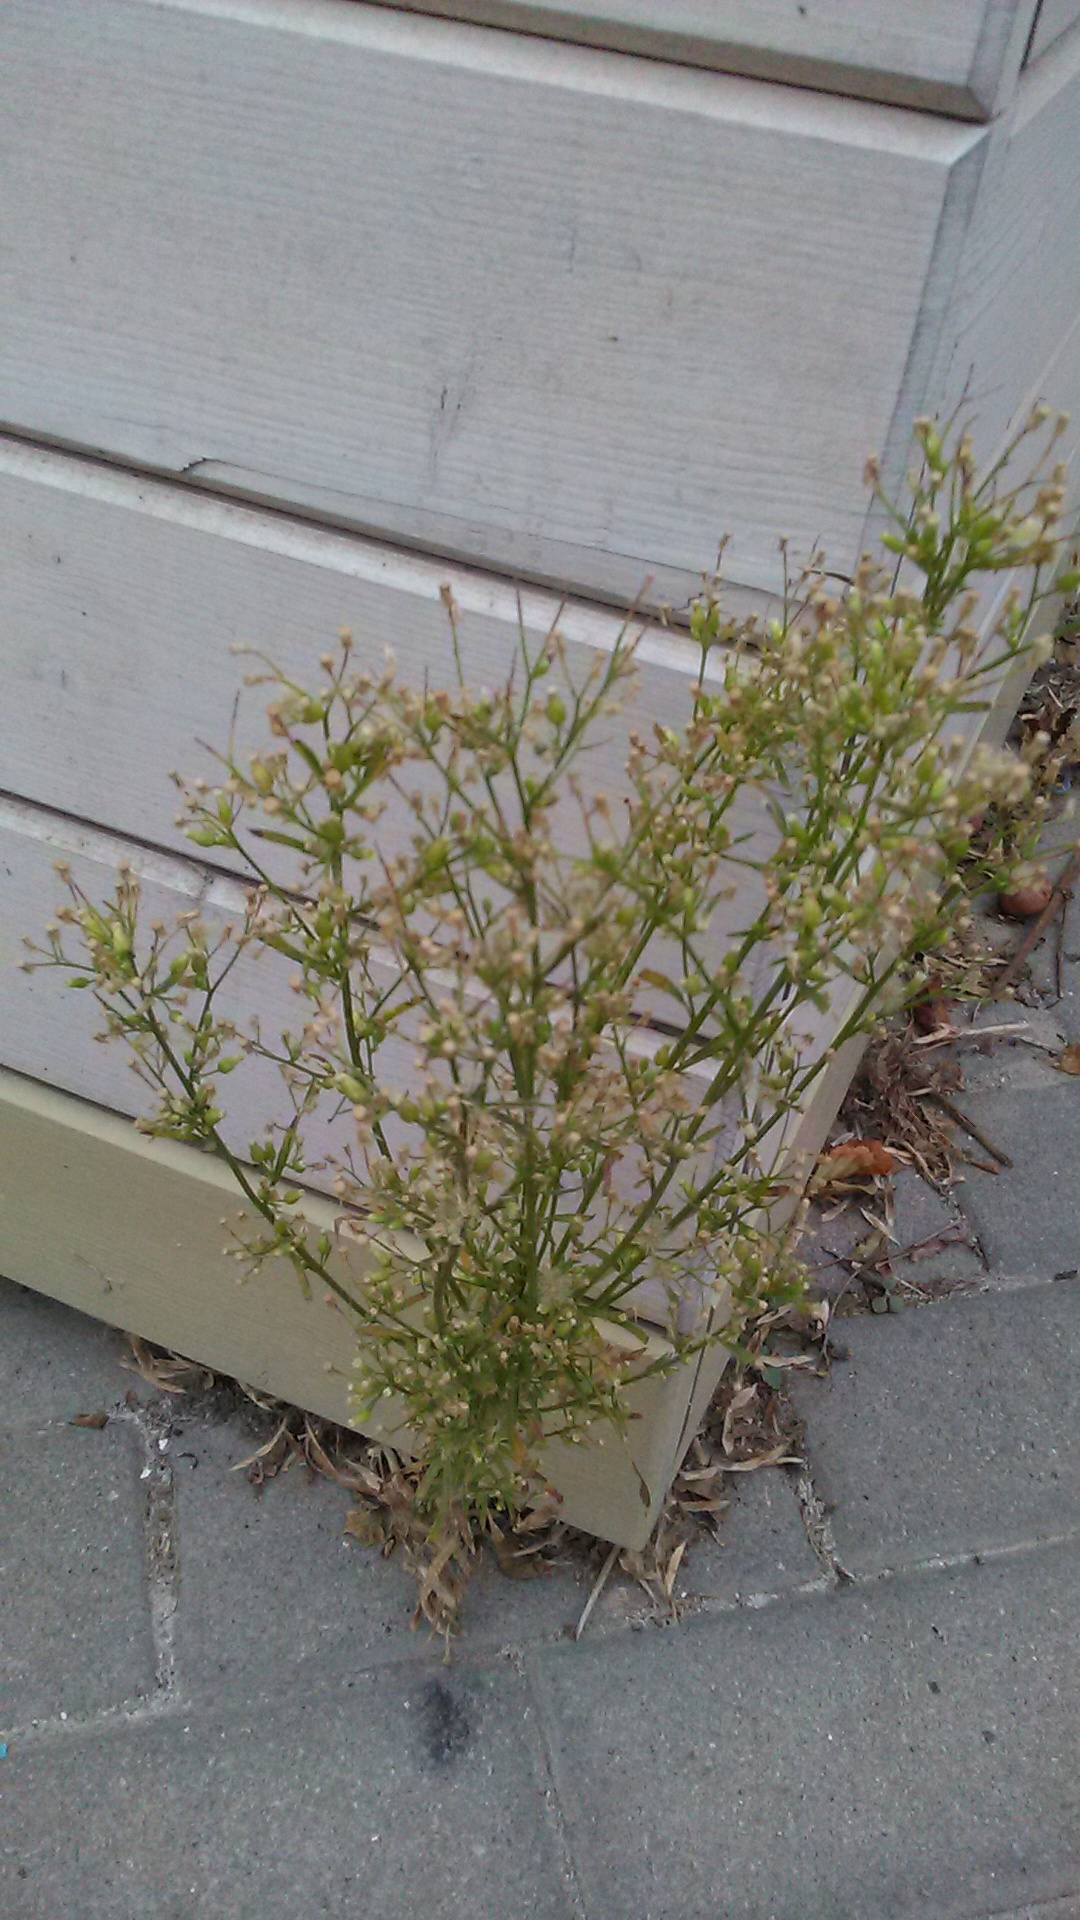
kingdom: Plantae
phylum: Tracheophyta
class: Magnoliopsida
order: Asterales
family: Asteraceae
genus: Erigeron
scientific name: Erigeron canadensis
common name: Canadian fleabane
